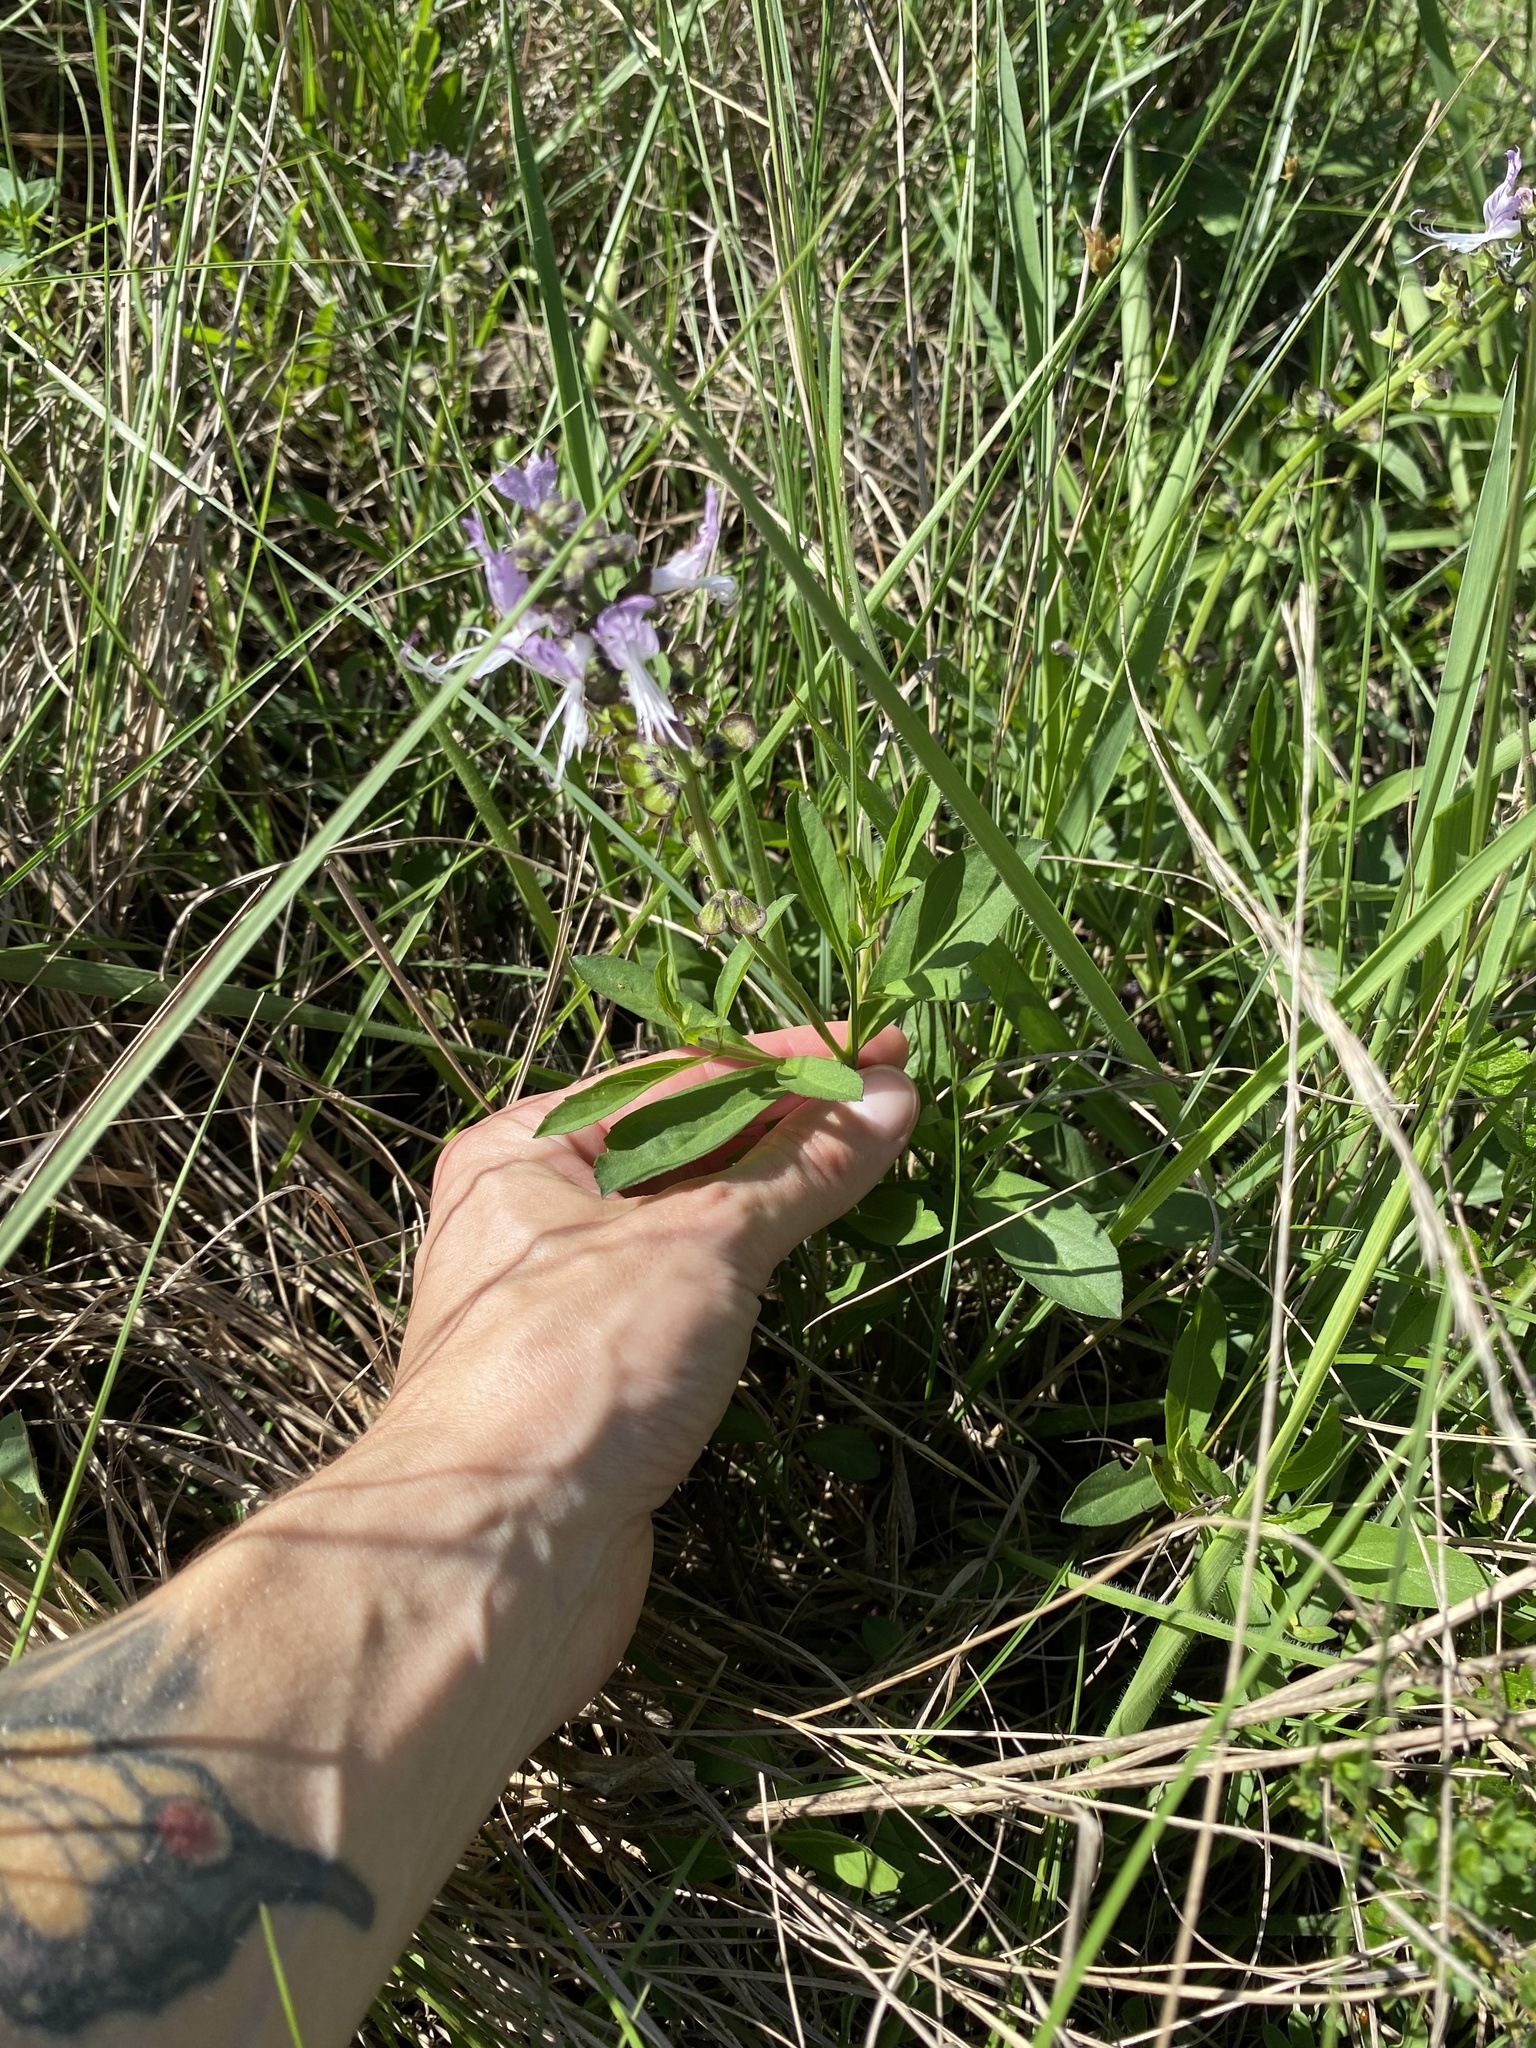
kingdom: Plantae
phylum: Tracheophyta
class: Magnoliopsida
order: Lamiales
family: Lamiaceae
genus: Ocimum
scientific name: Ocimum obovatum
